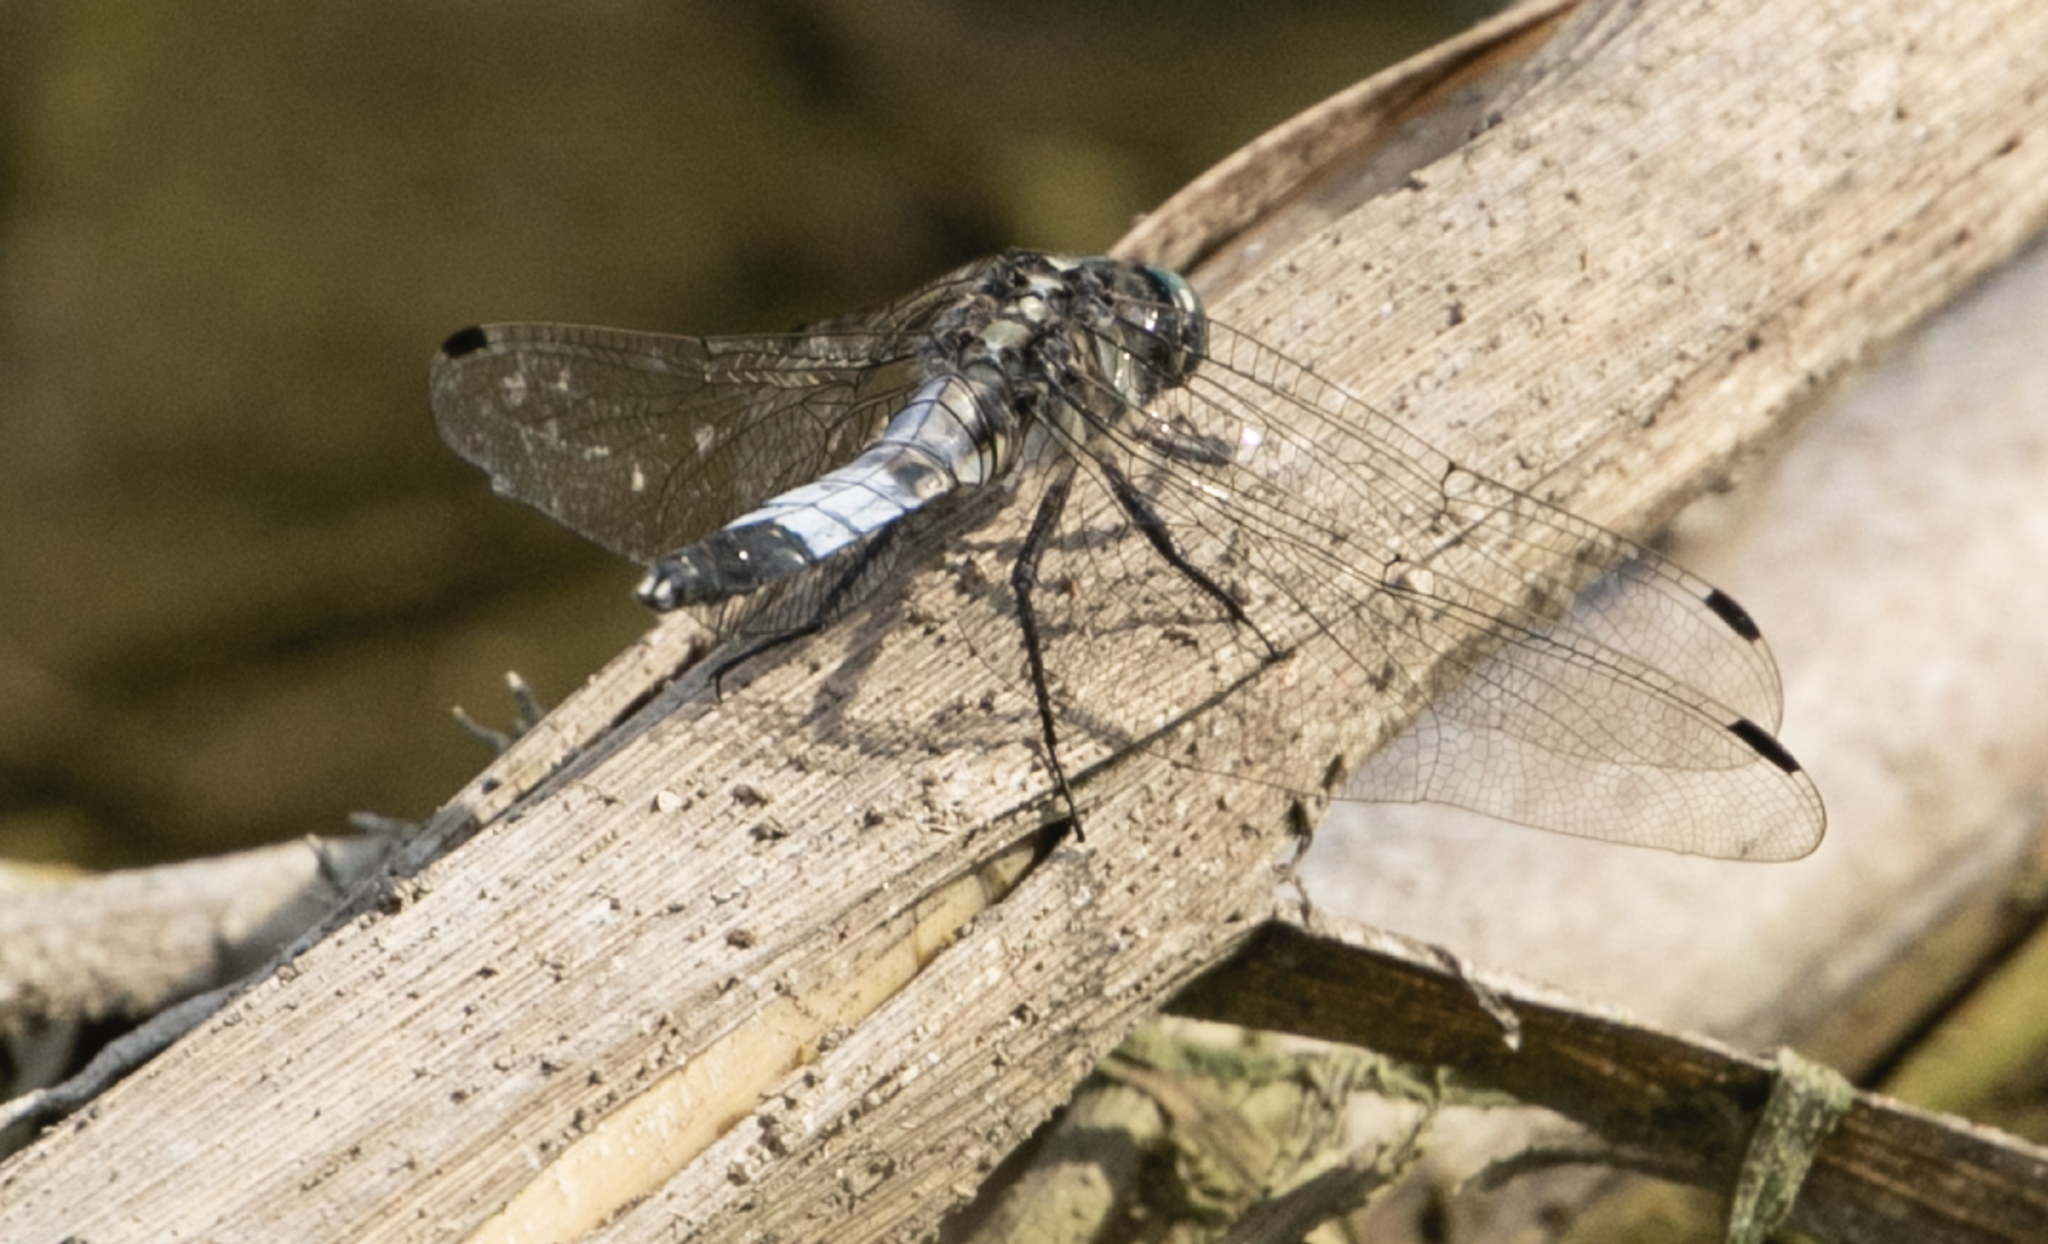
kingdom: Animalia
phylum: Arthropoda
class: Insecta
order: Odonata
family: Libellulidae
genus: Orthetrum
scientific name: Orthetrum albistylum
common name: White-tailed skimmer
